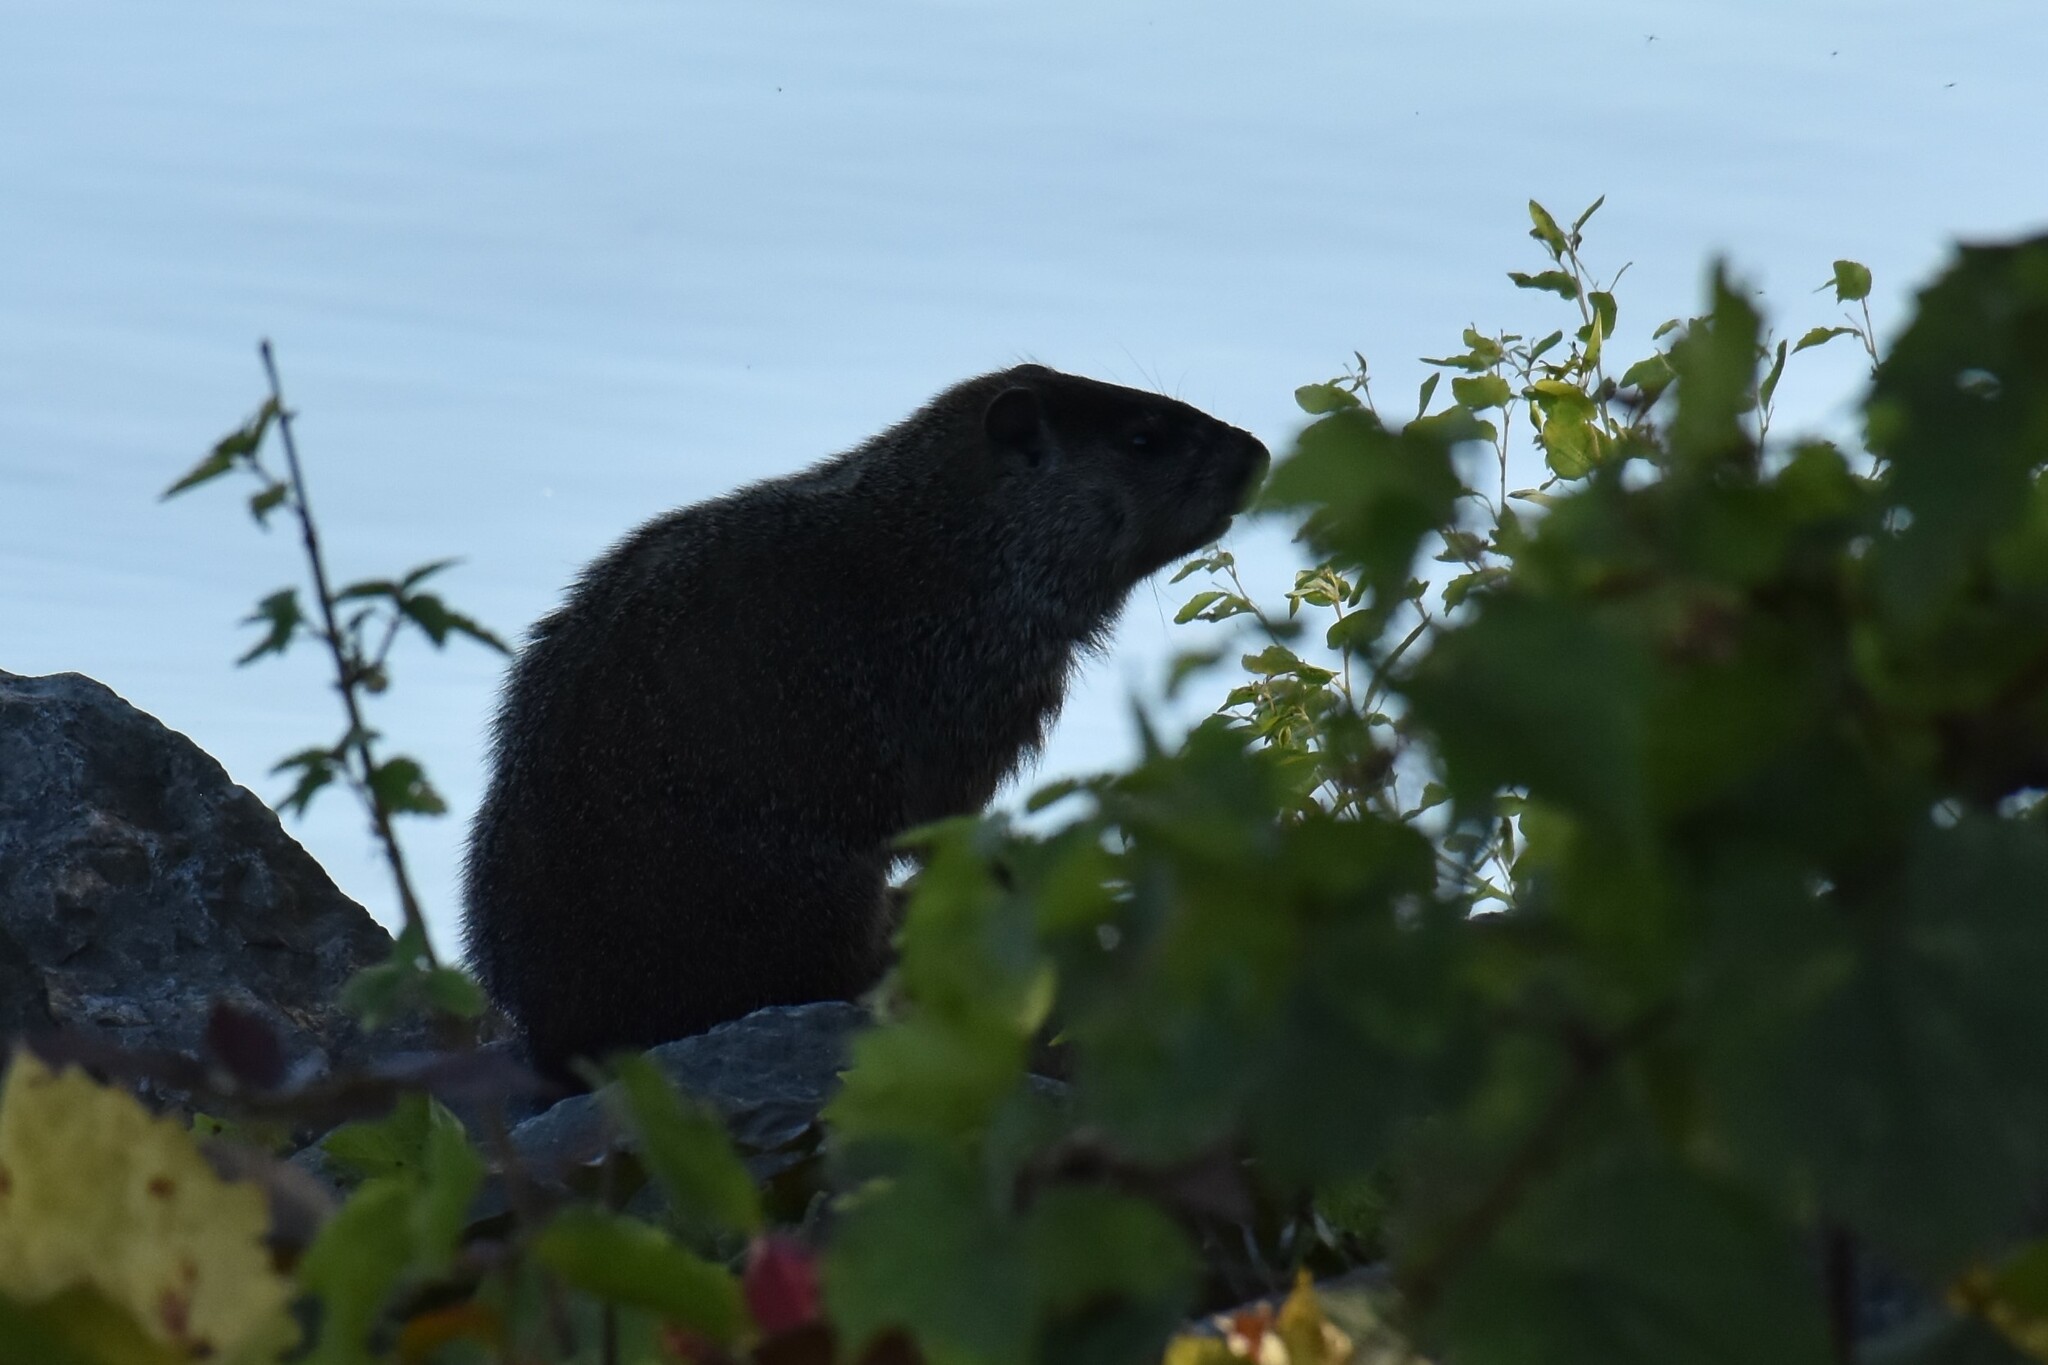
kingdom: Animalia
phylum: Chordata
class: Mammalia
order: Rodentia
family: Sciuridae
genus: Marmota
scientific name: Marmota monax
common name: Groundhog
